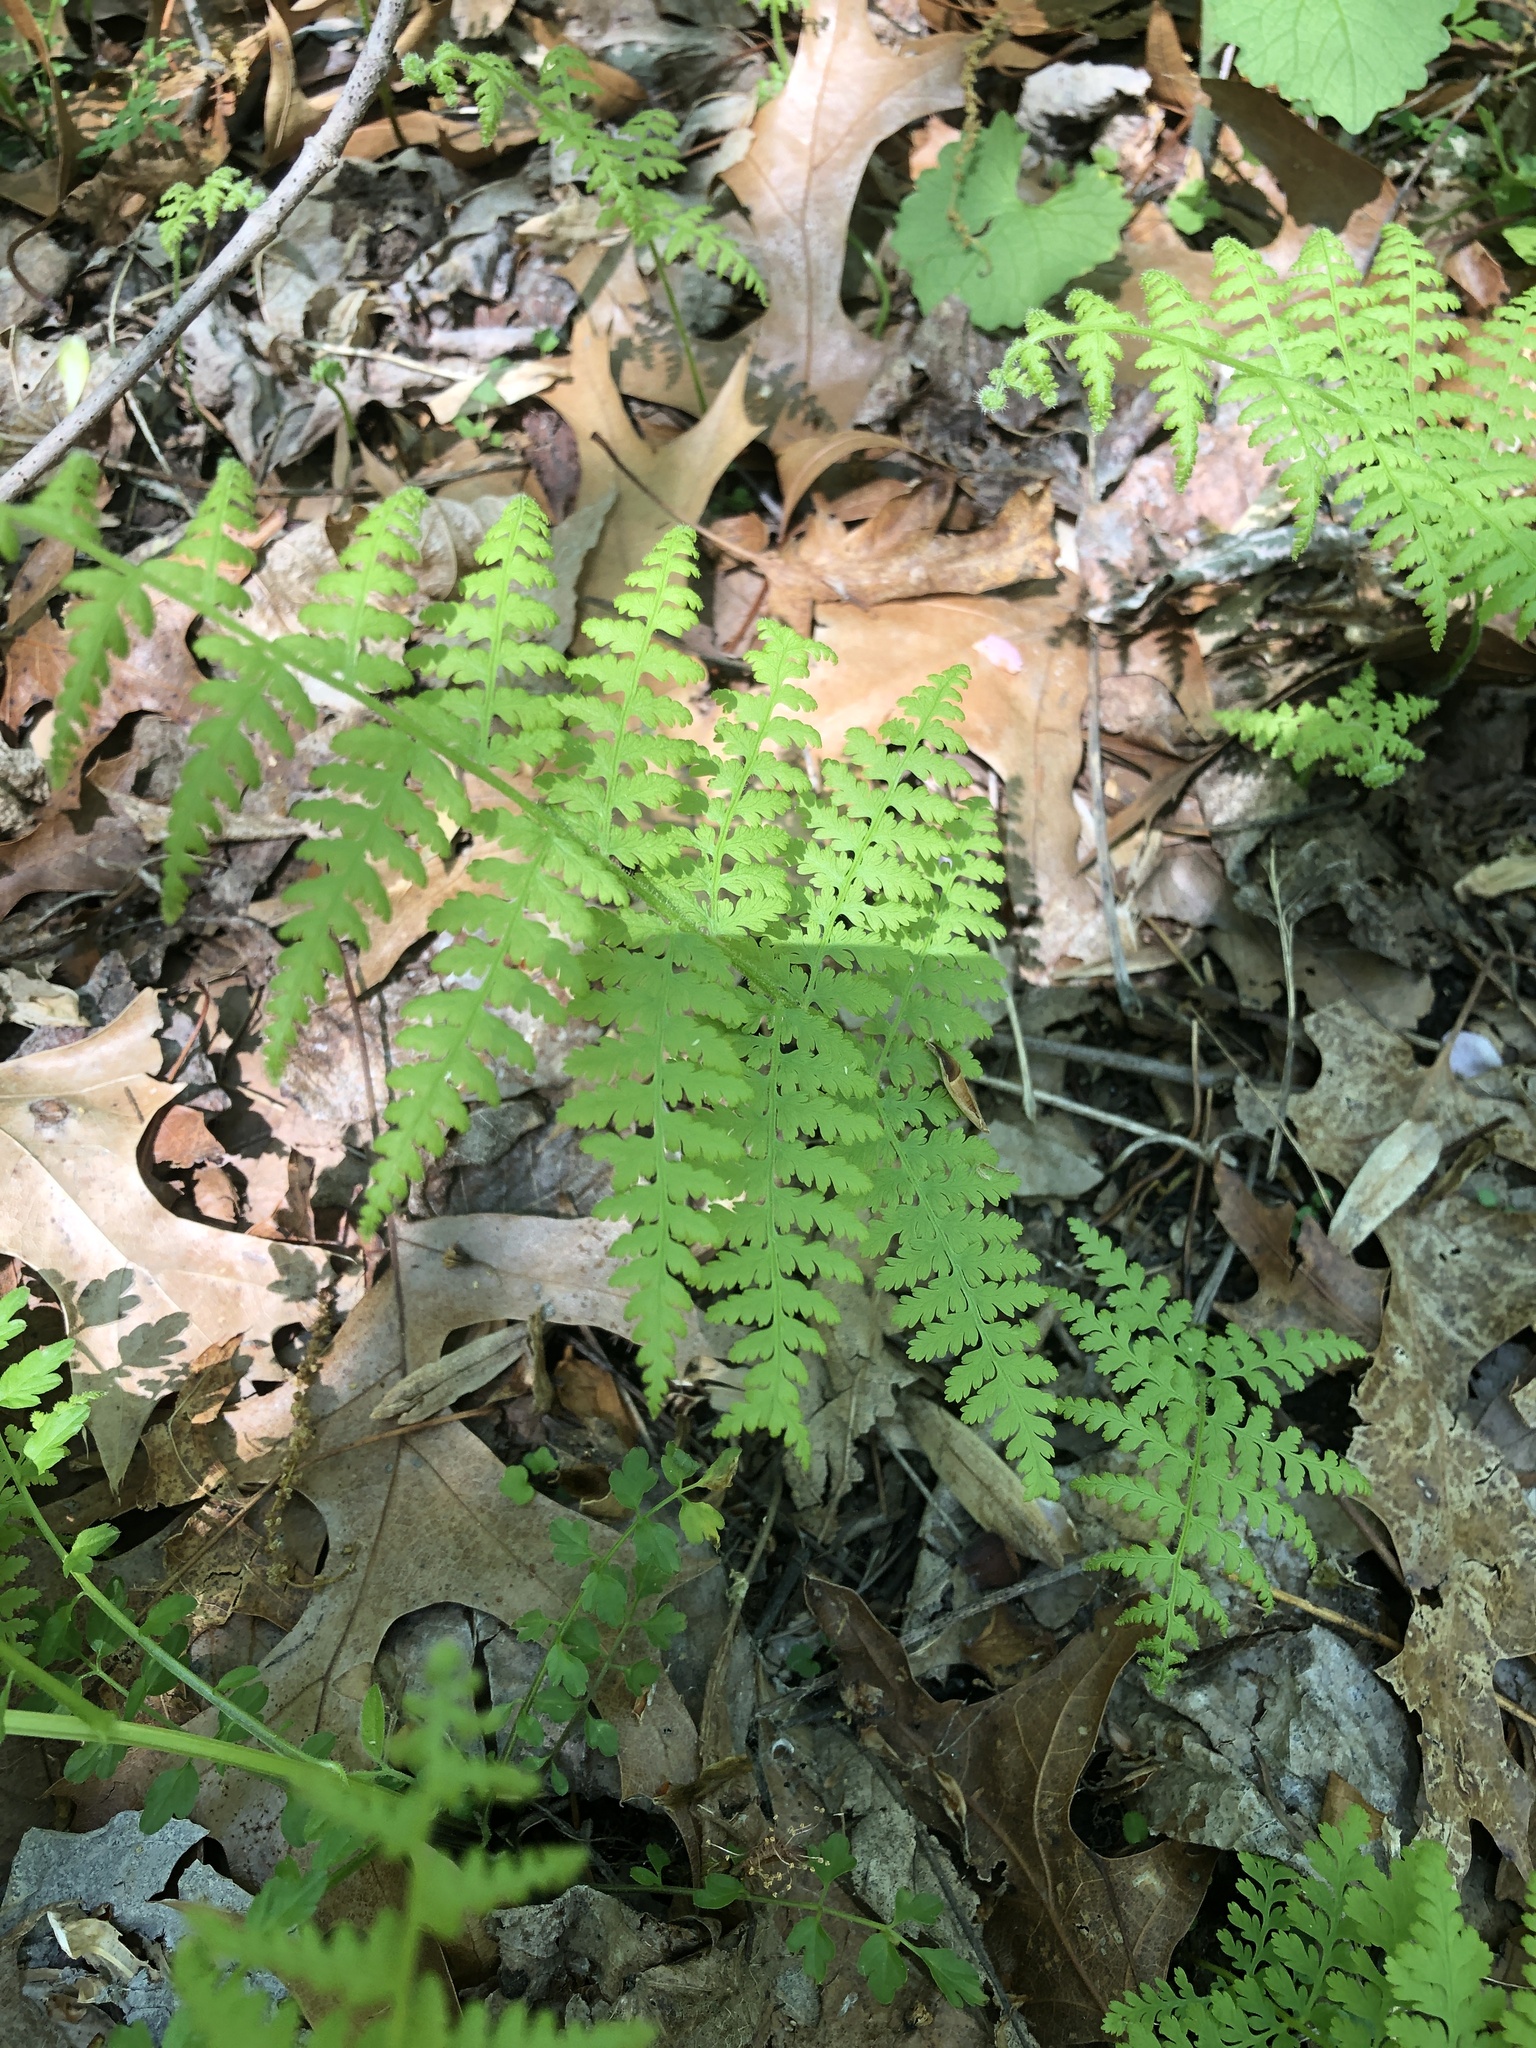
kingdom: Plantae
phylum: Tracheophyta
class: Polypodiopsida
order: Polypodiales
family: Dennstaedtiaceae
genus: Sitobolium
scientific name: Sitobolium punctilobum
